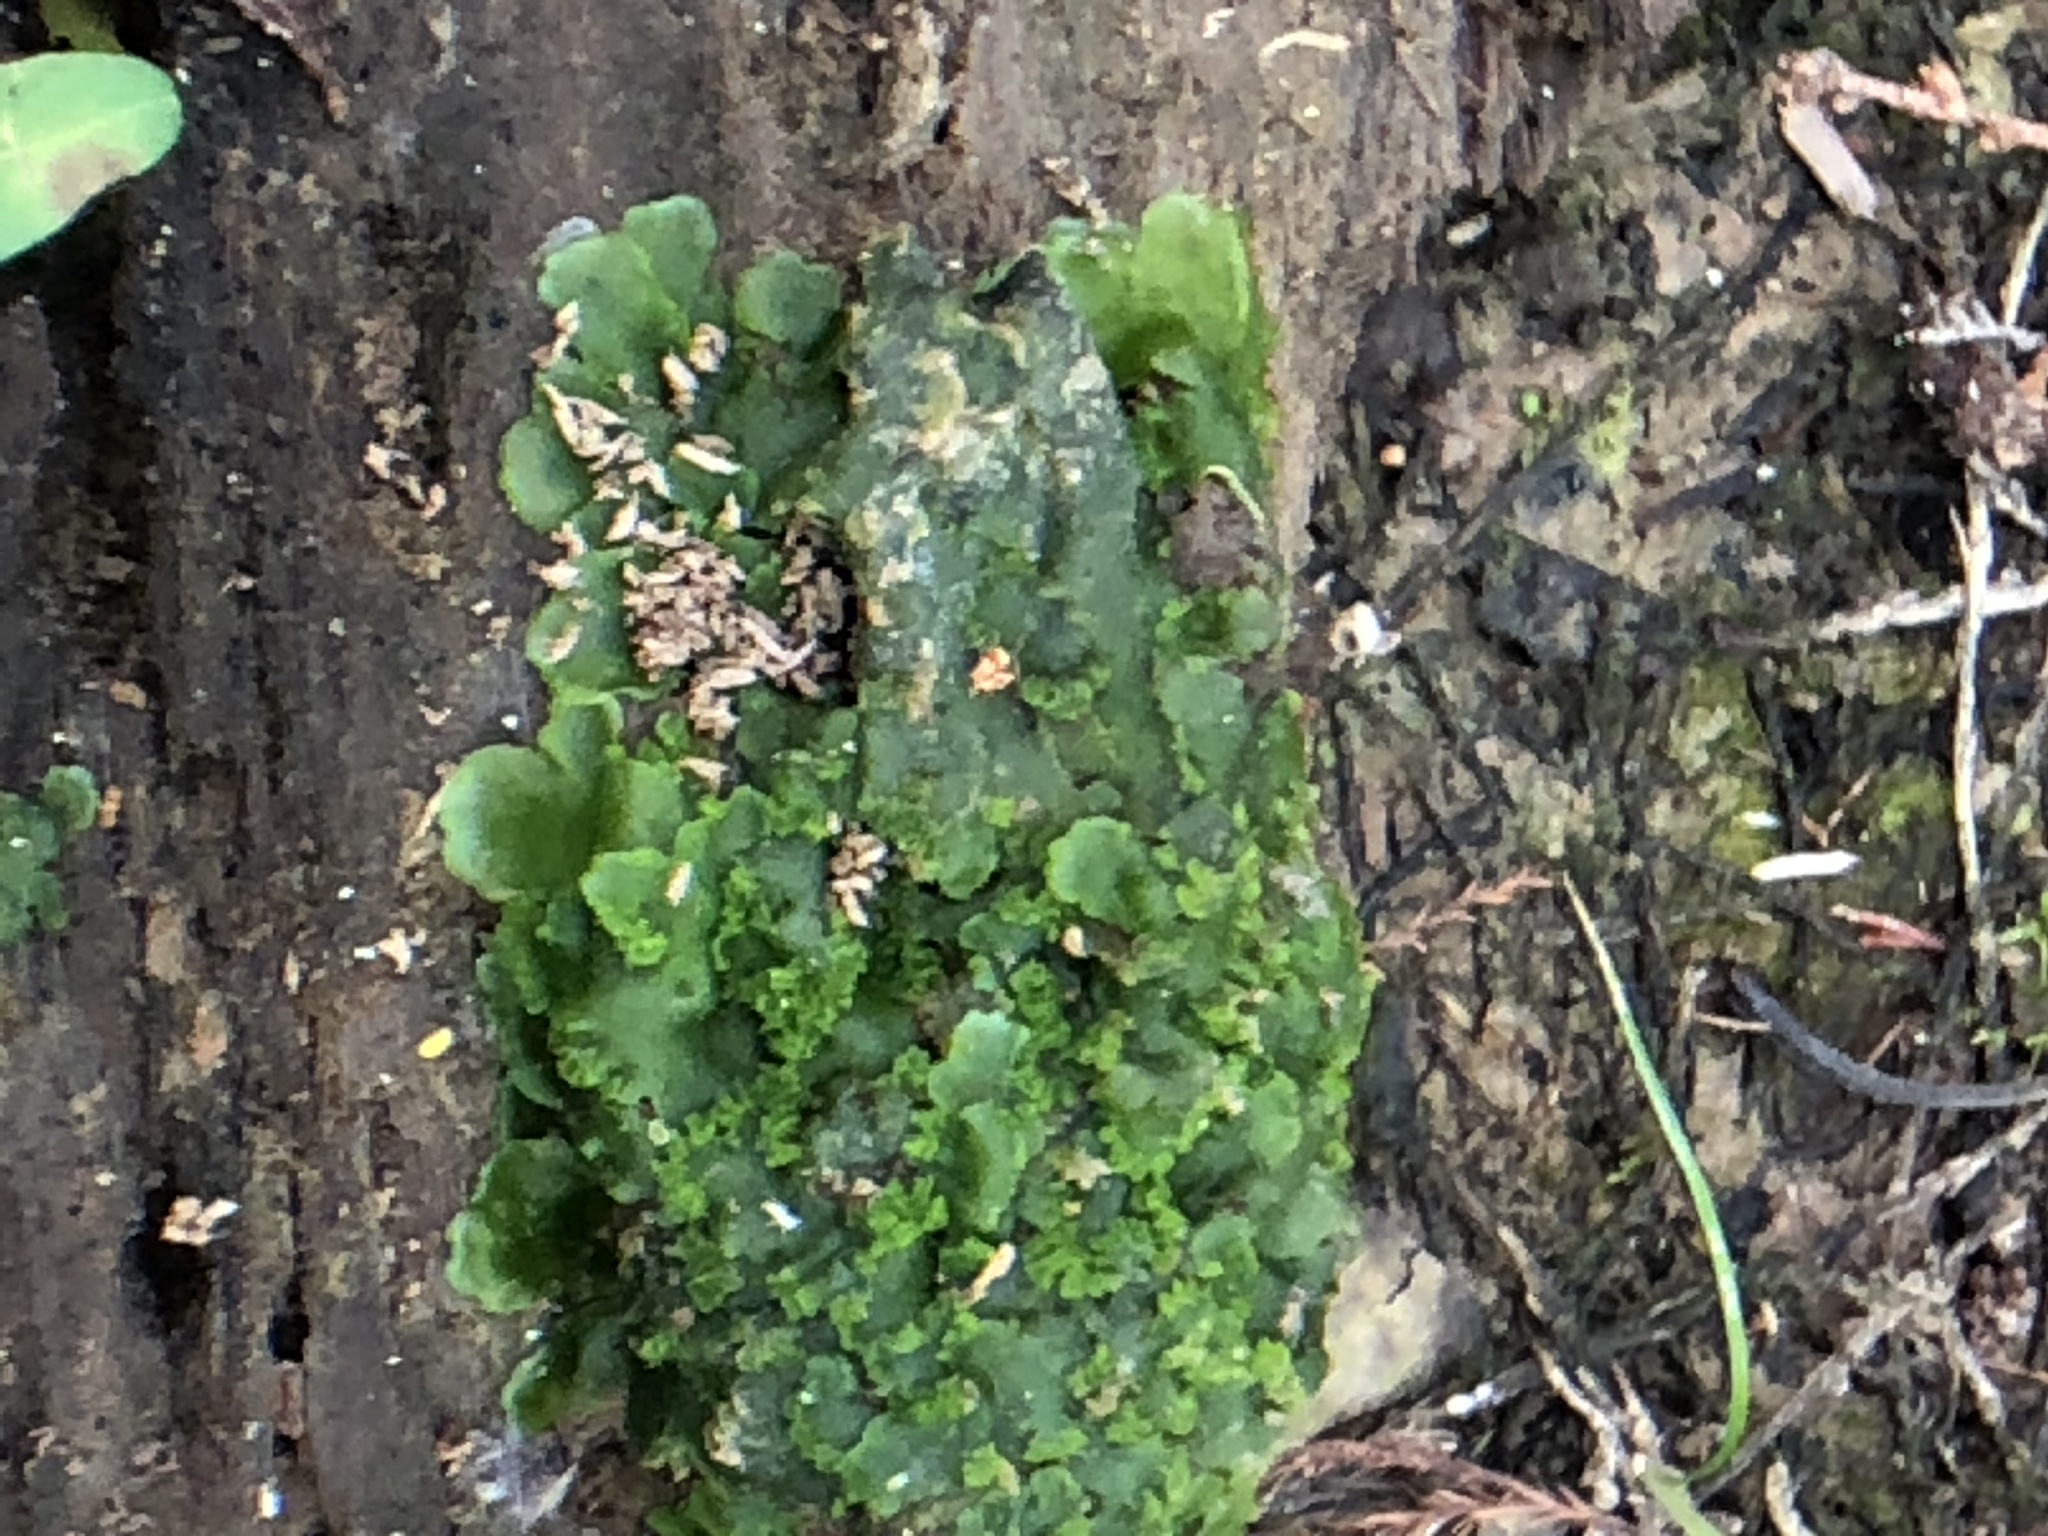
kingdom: Plantae
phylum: Marchantiophyta
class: Jungermanniopsida
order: Metzgeriales
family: Aneuraceae
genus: Aneura
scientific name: Aneura pinguis
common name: Common greasewort
